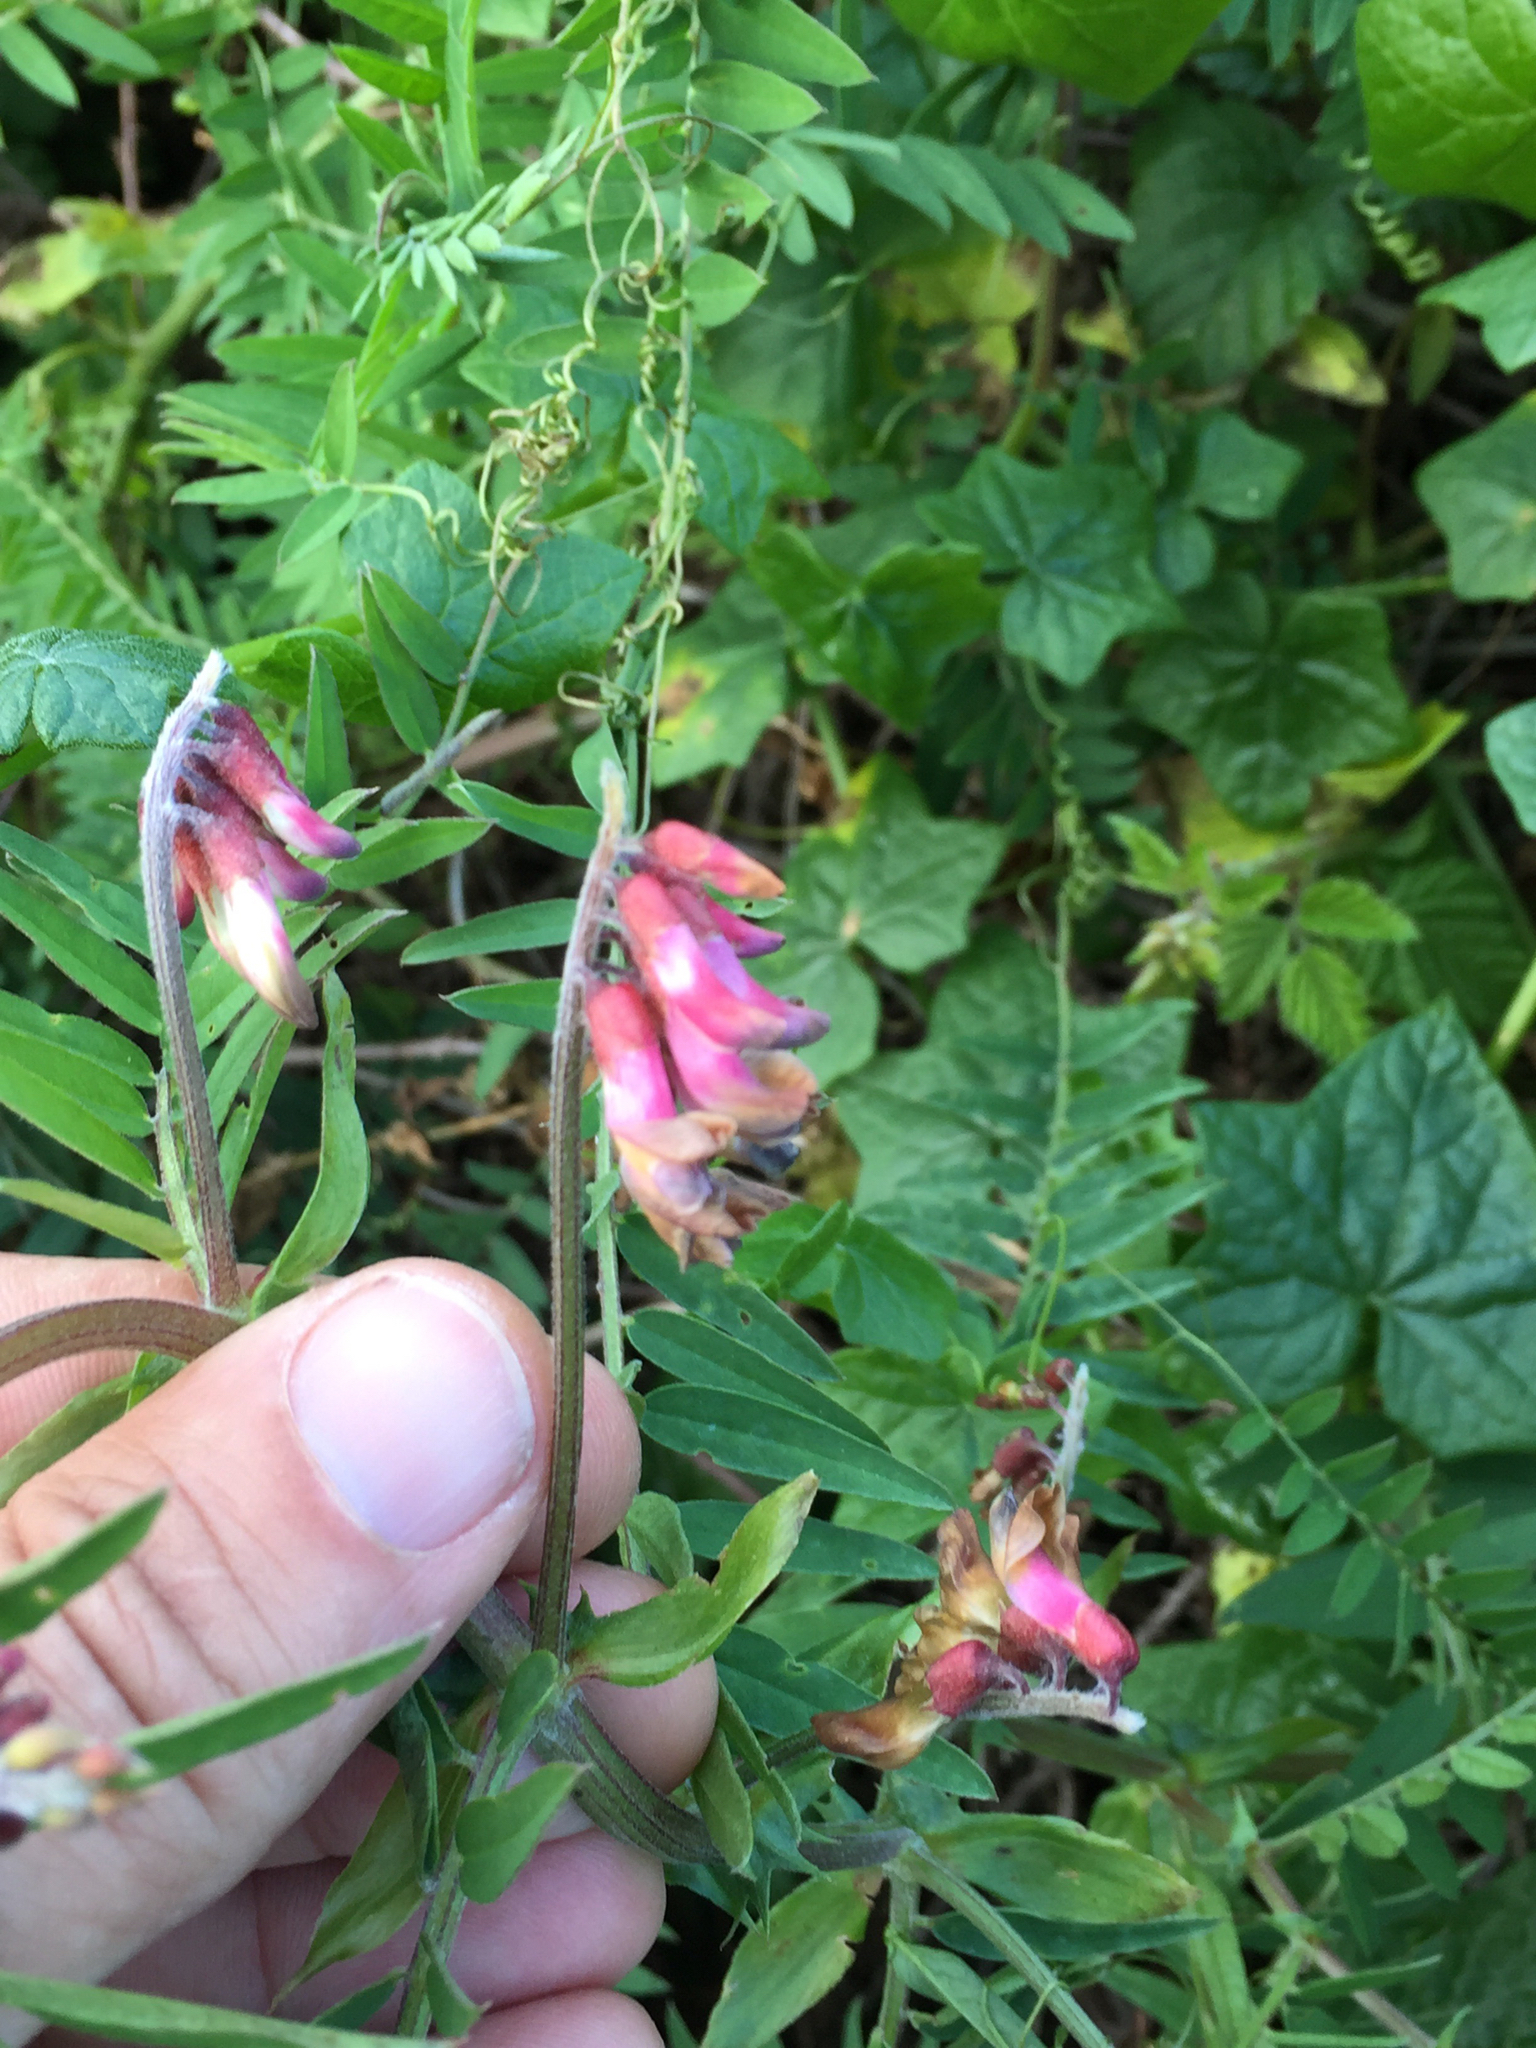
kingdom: Plantae
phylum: Tracheophyta
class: Magnoliopsida
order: Fabales
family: Fabaceae
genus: Vicia
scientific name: Vicia
